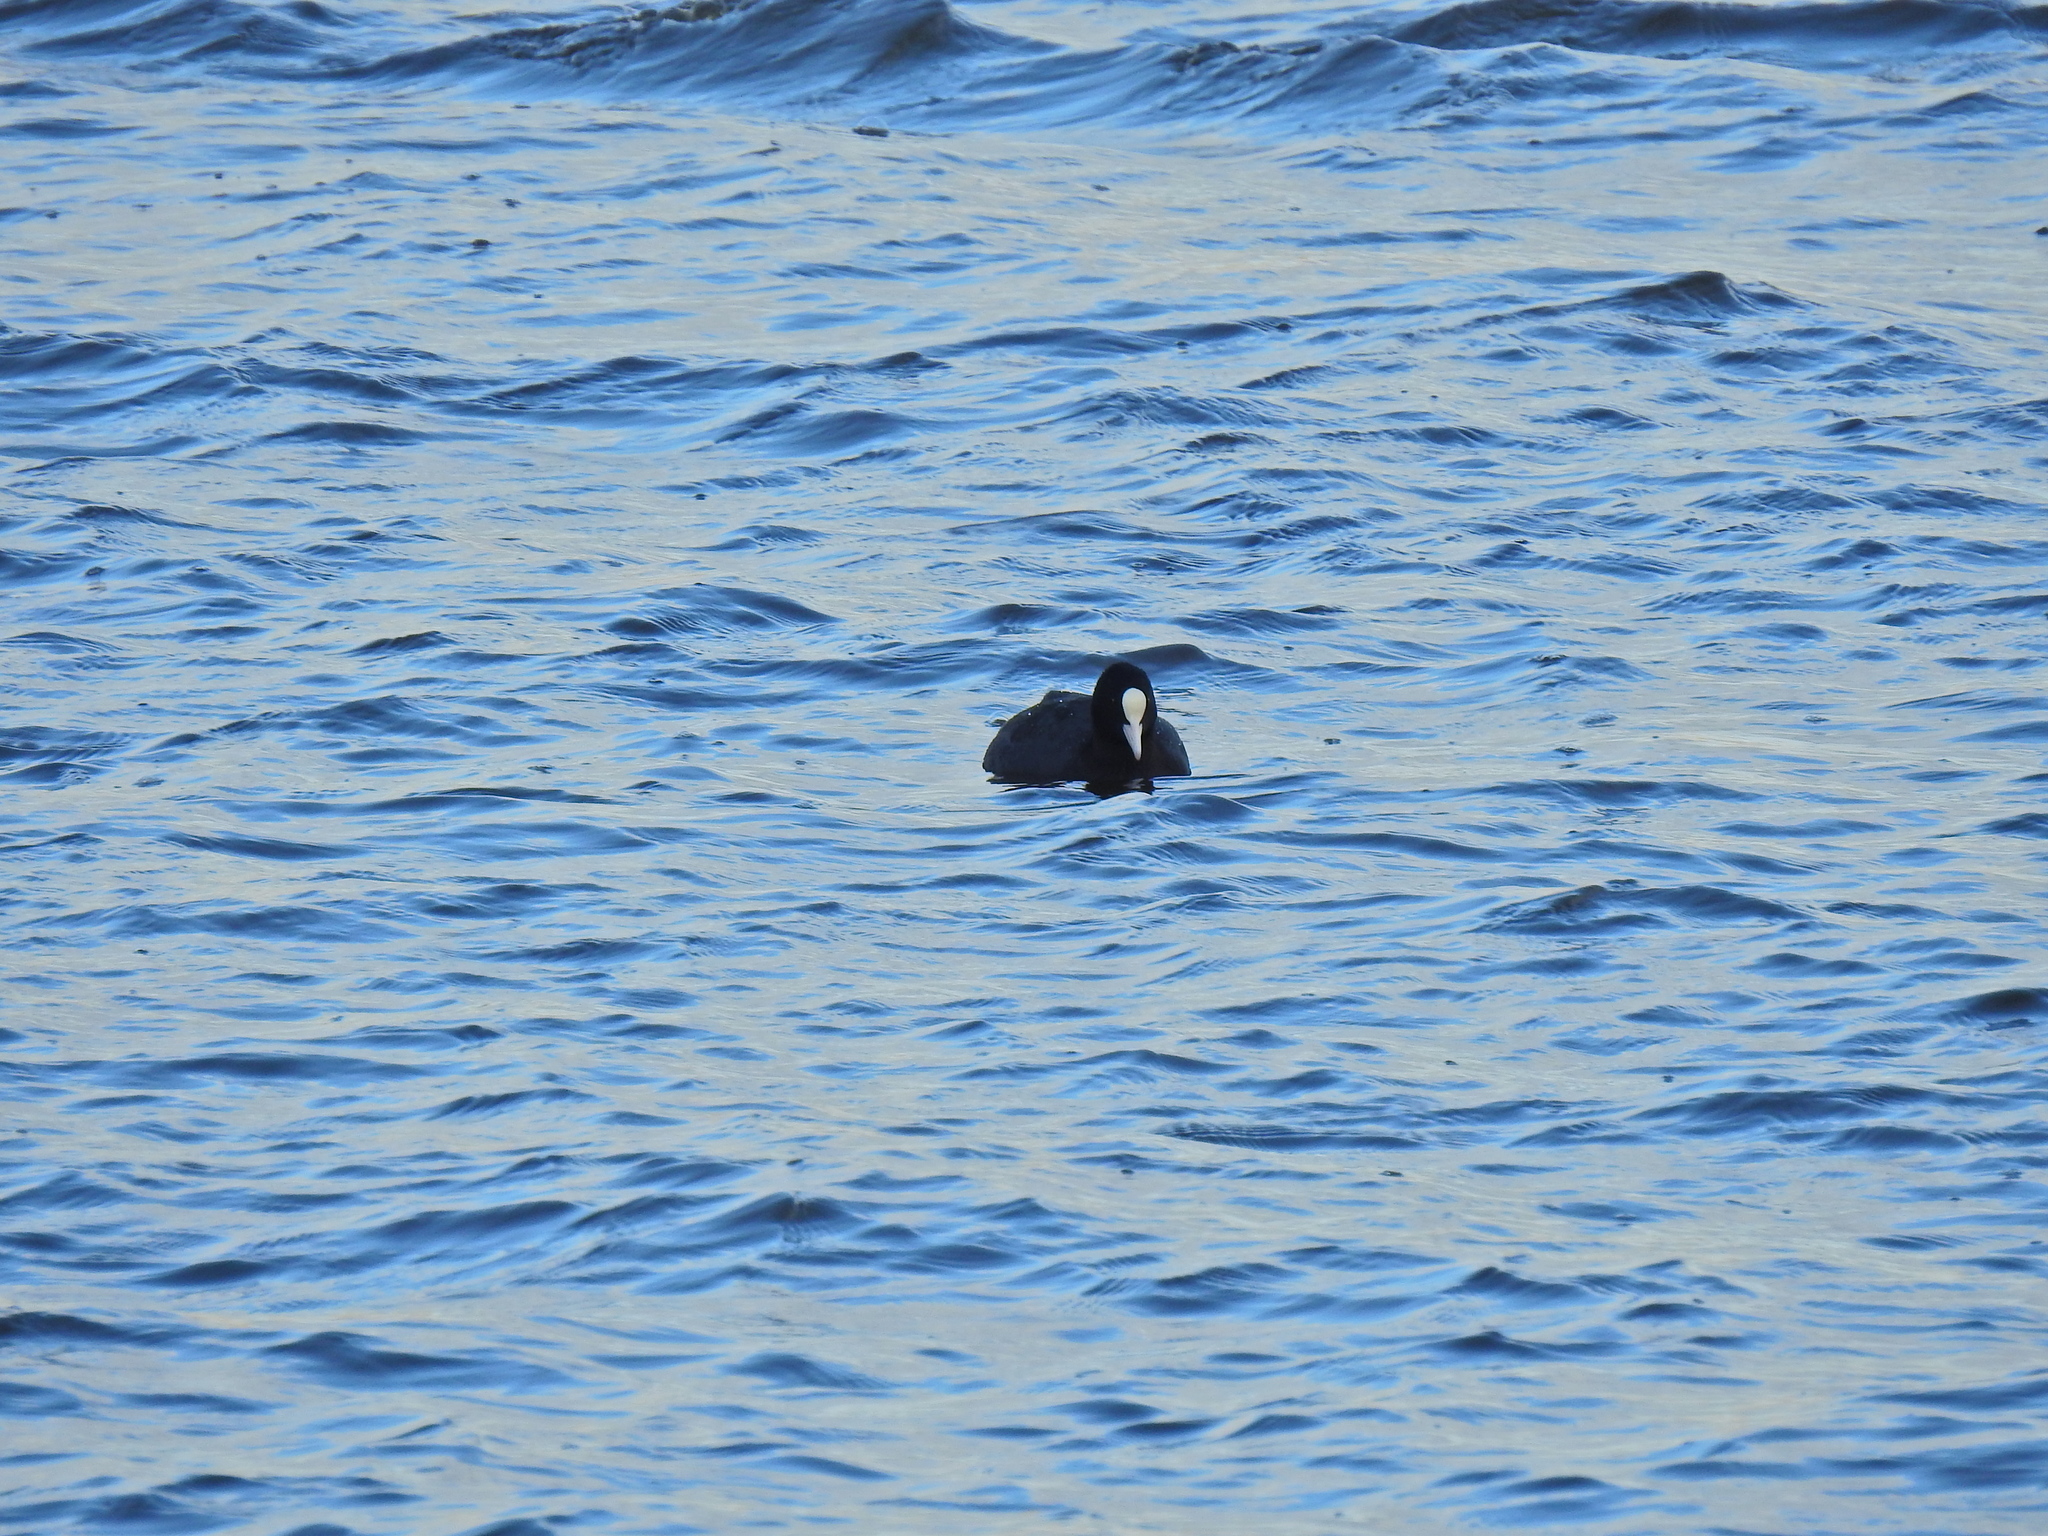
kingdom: Animalia
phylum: Chordata
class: Aves
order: Gruiformes
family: Rallidae
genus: Fulica
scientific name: Fulica atra
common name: Eurasian coot
